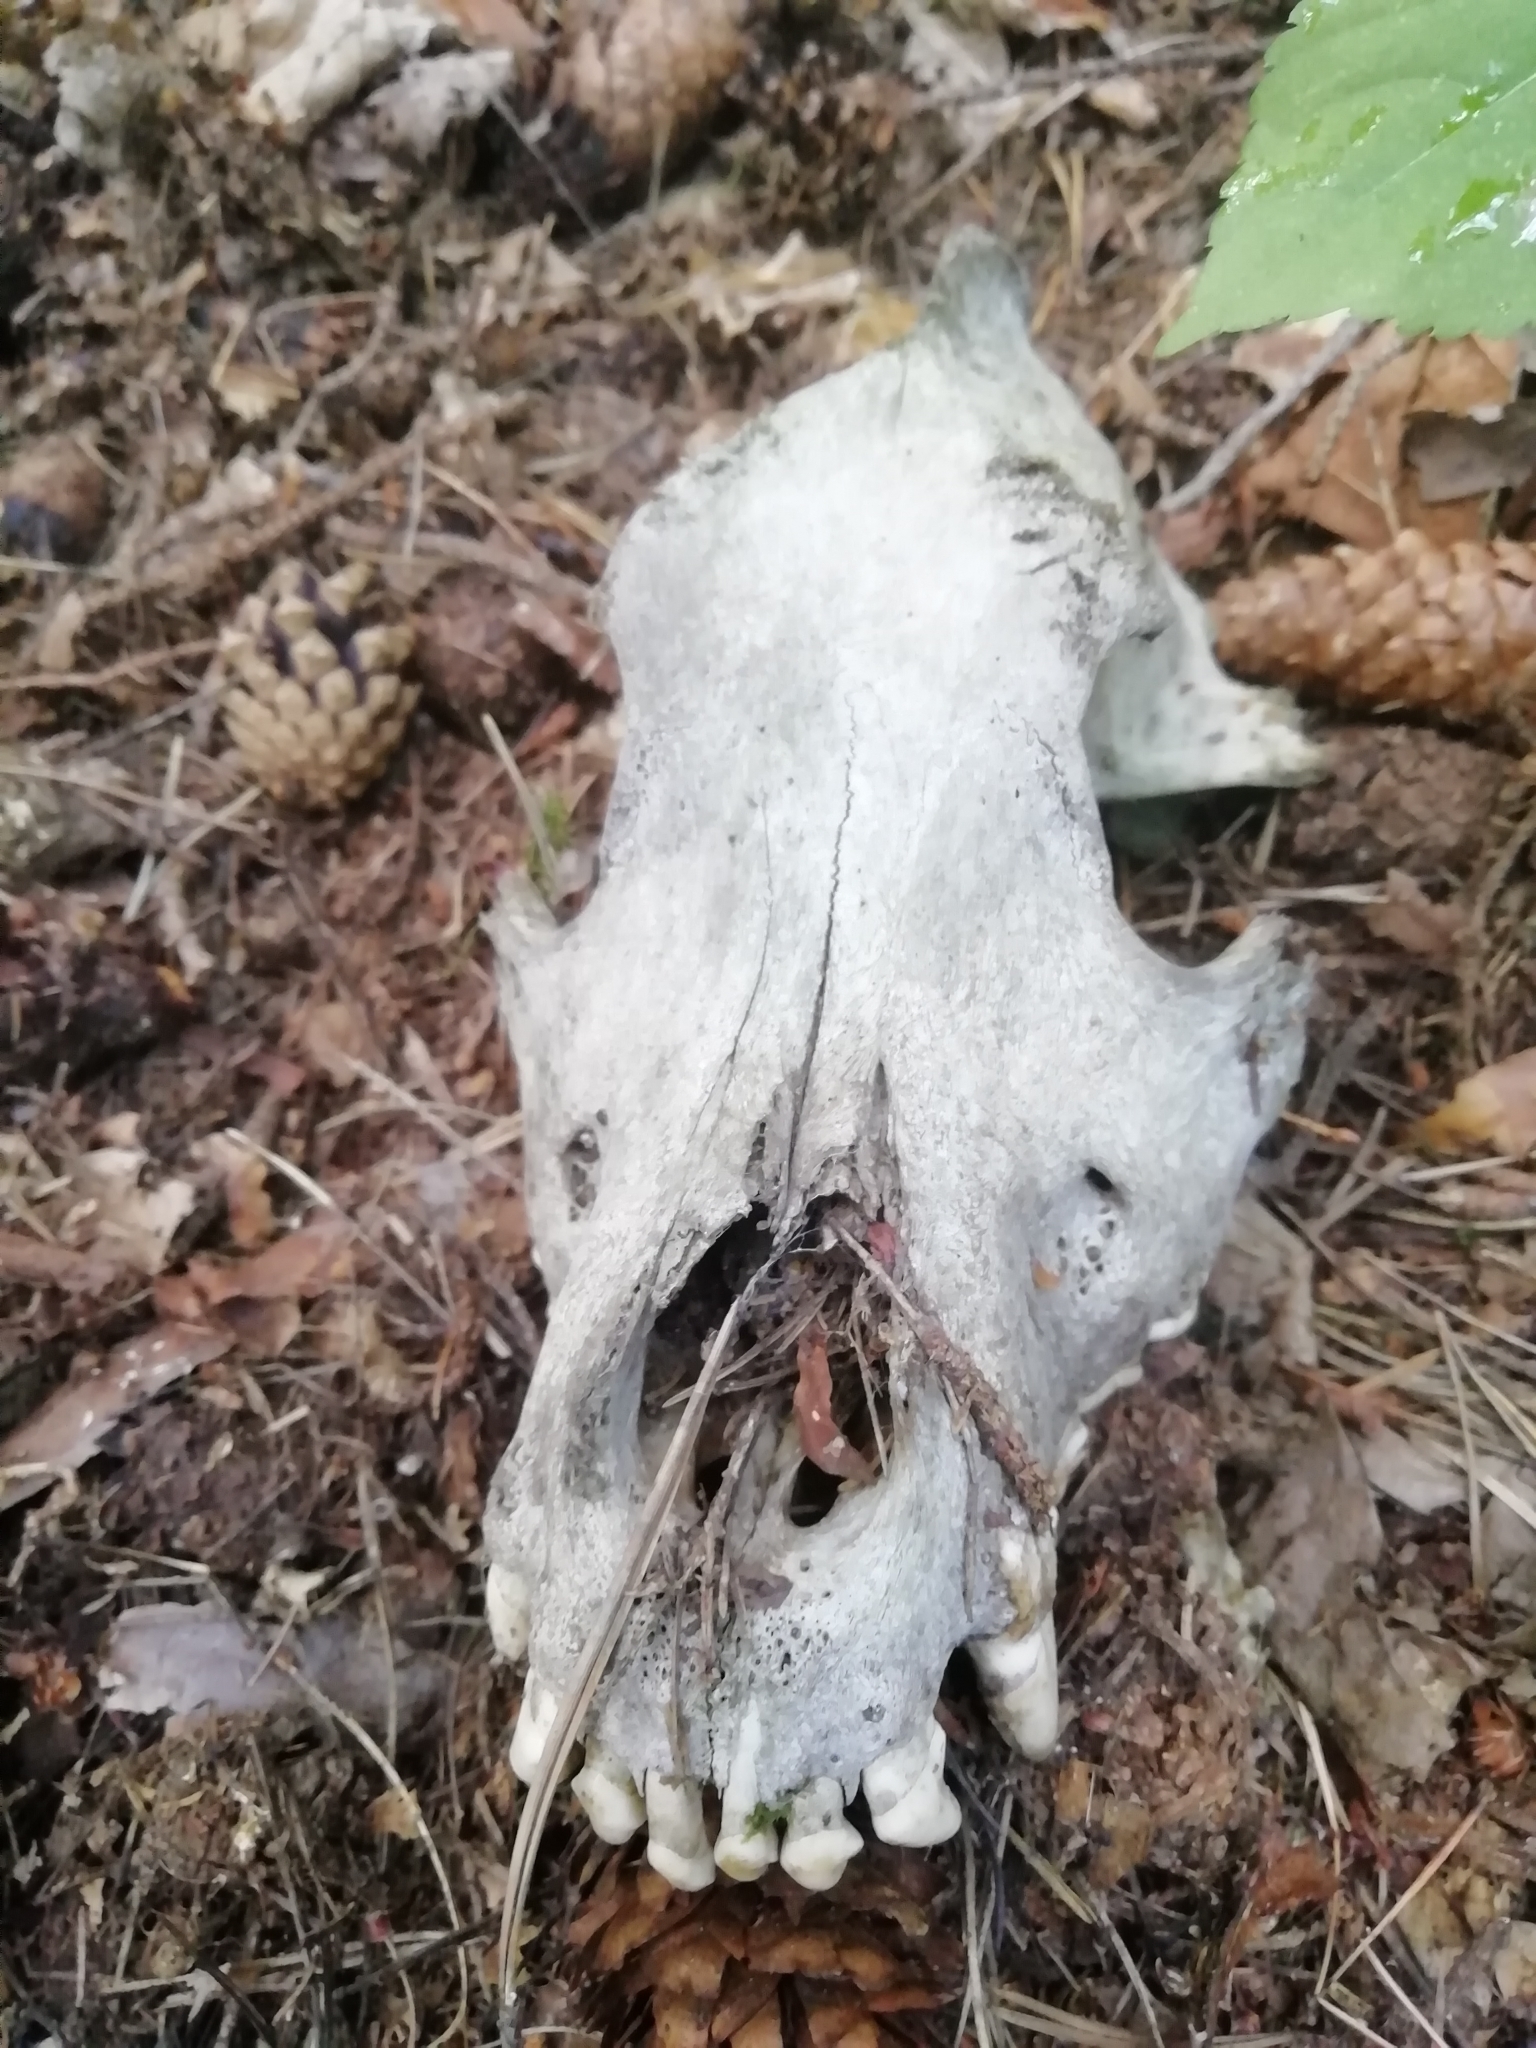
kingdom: Animalia
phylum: Chordata
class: Mammalia
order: Carnivora
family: Canidae
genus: Canis
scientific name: Canis lupus
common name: Gray wolf
